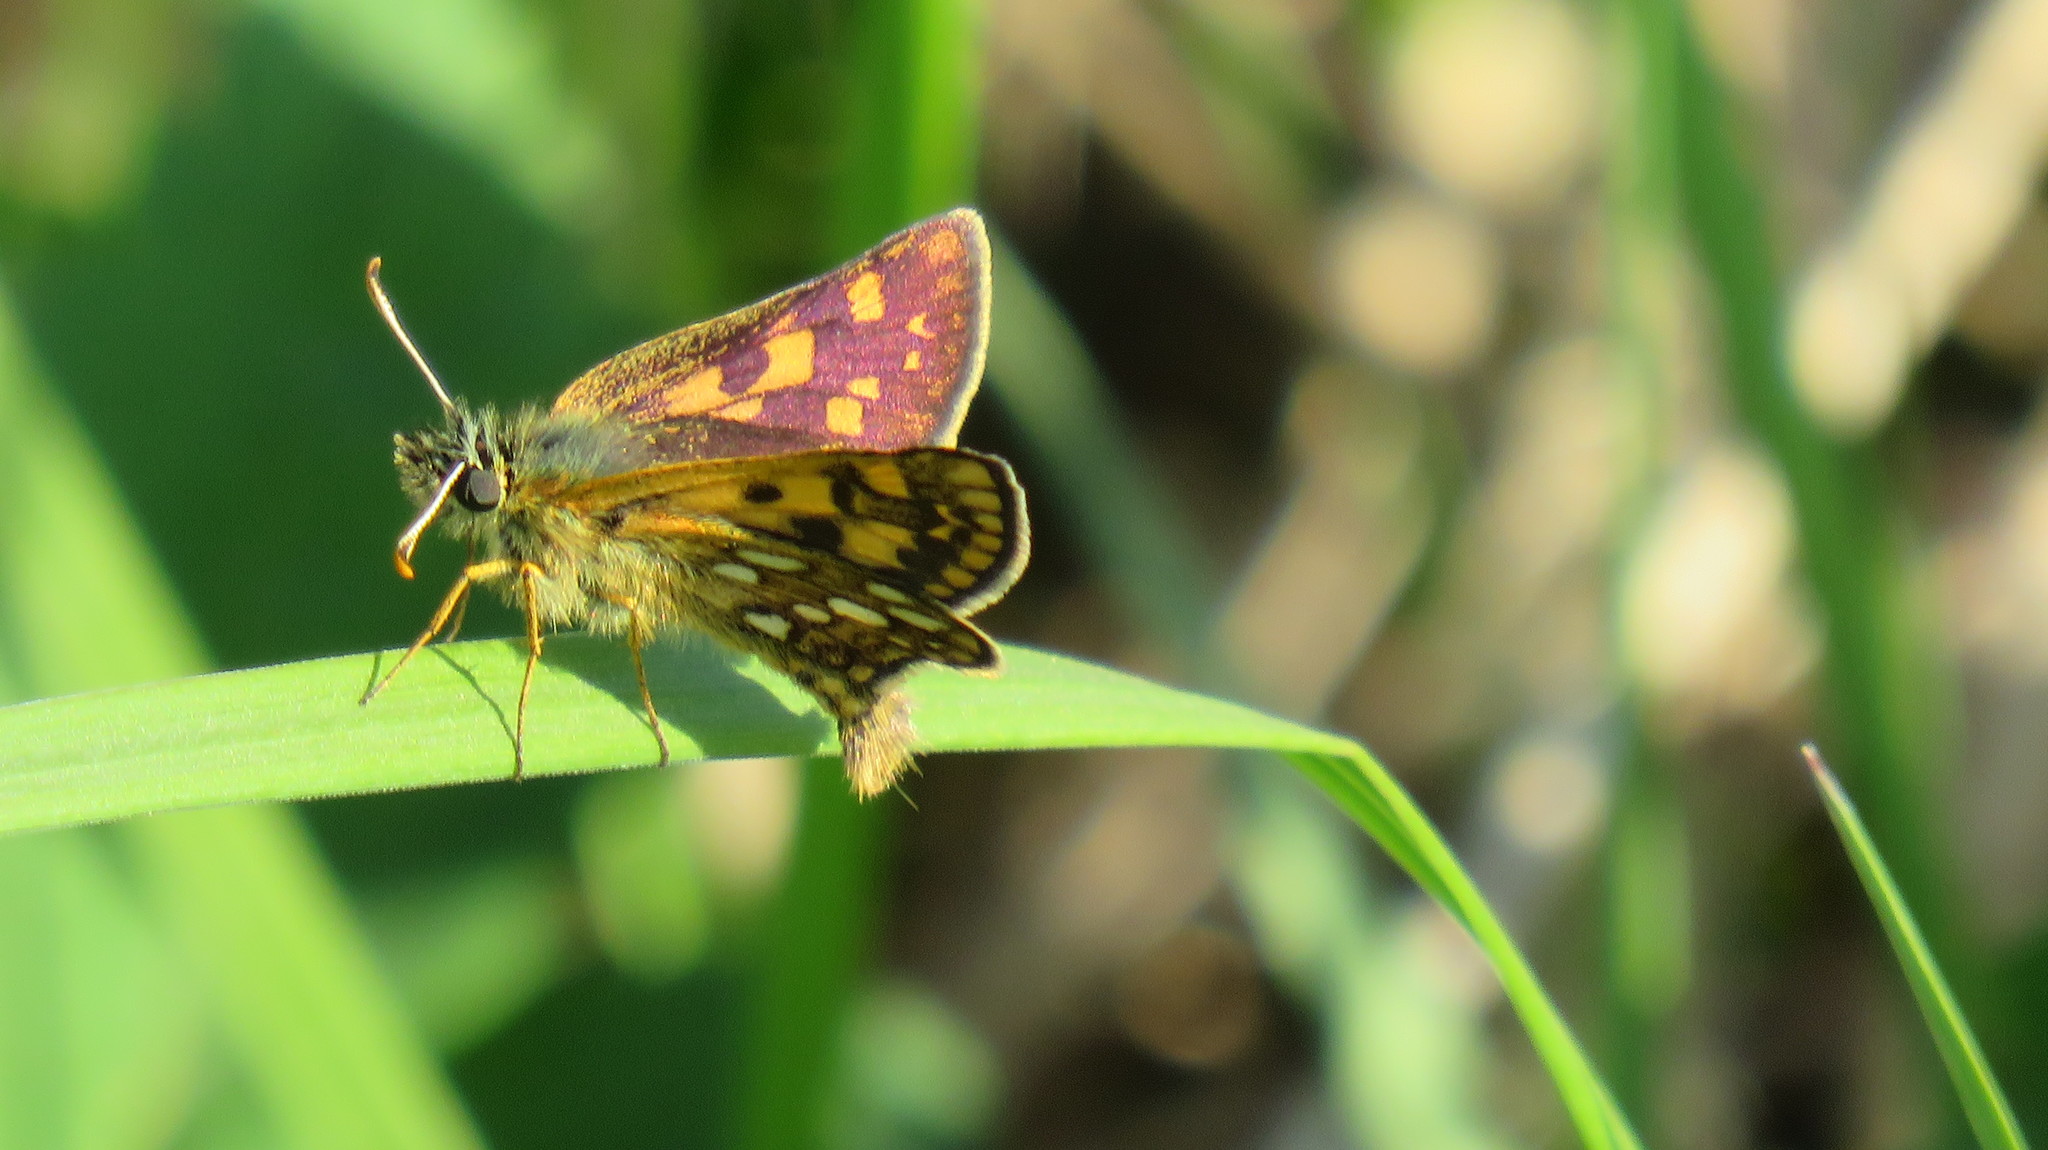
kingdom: Animalia
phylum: Arthropoda
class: Insecta
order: Lepidoptera
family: Hesperiidae
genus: Carterocephalus
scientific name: Carterocephalus palaemon
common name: Chequered skipper
